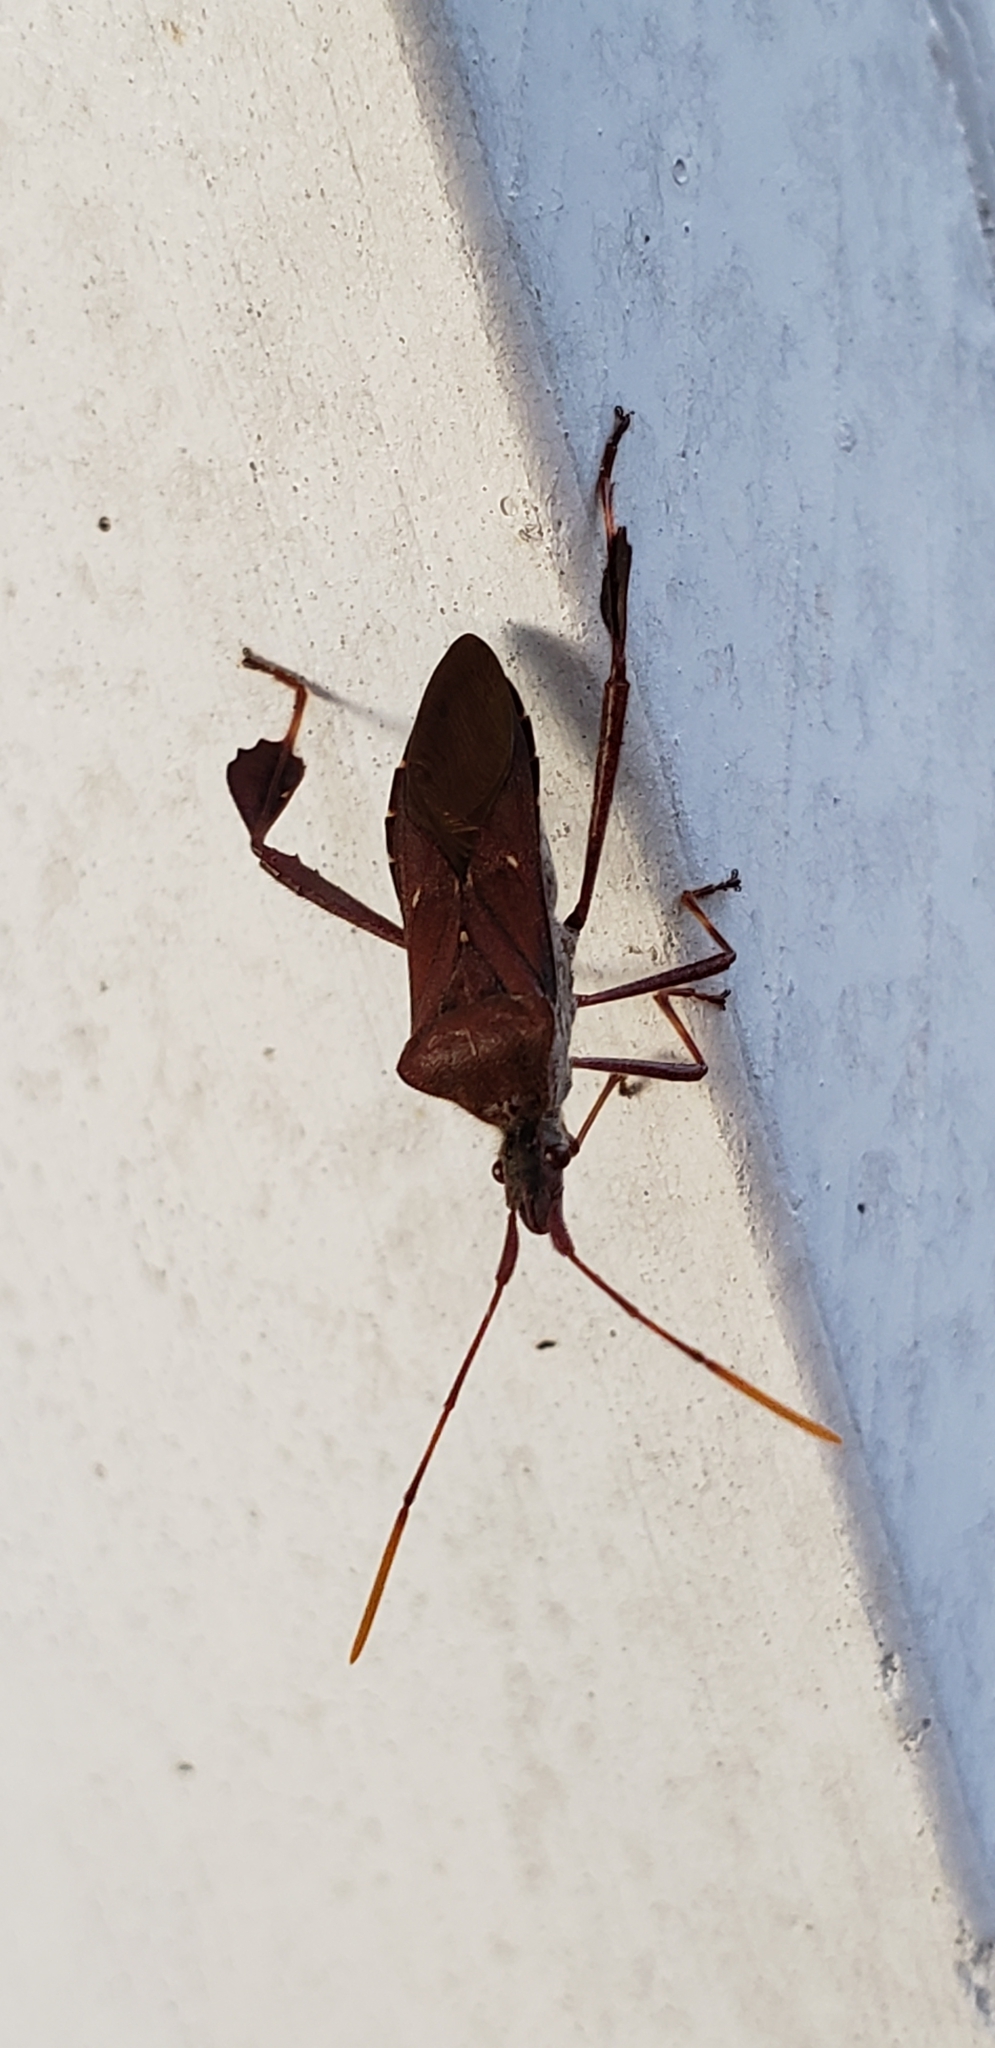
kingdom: Animalia
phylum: Arthropoda
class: Insecta
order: Hemiptera
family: Coreidae
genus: Leptoglossus
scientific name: Leptoglossus oppositus
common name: Northern leaf-footed bug
